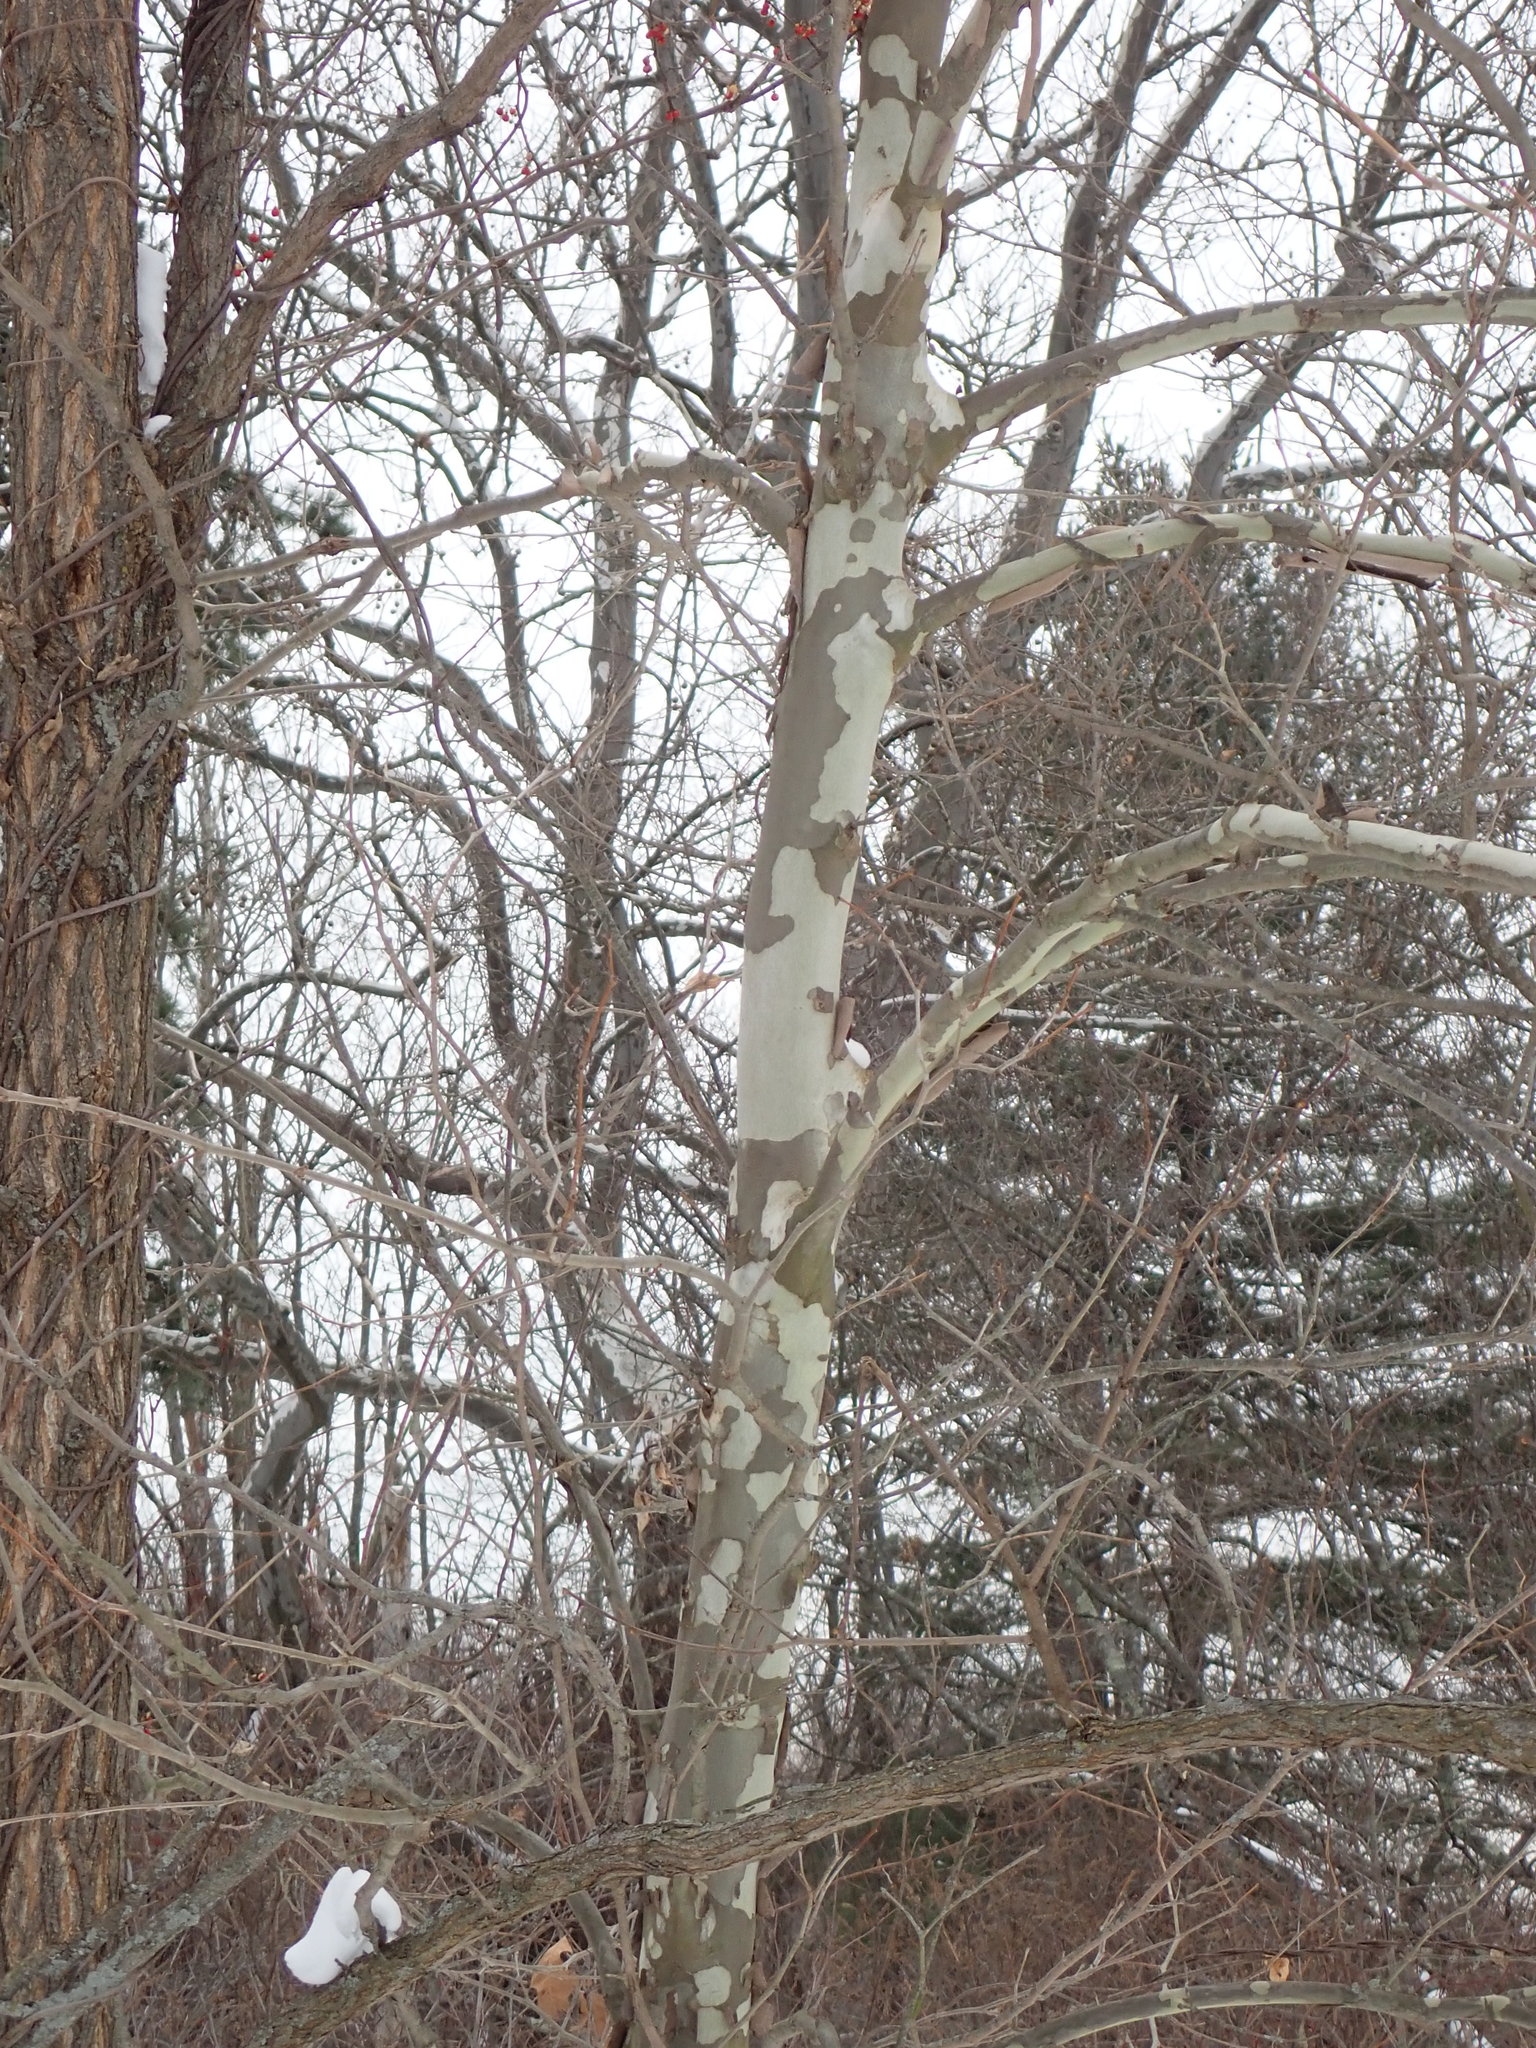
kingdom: Plantae
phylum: Tracheophyta
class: Magnoliopsida
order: Proteales
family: Platanaceae
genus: Platanus
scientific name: Platanus occidentalis
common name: American sycamore
